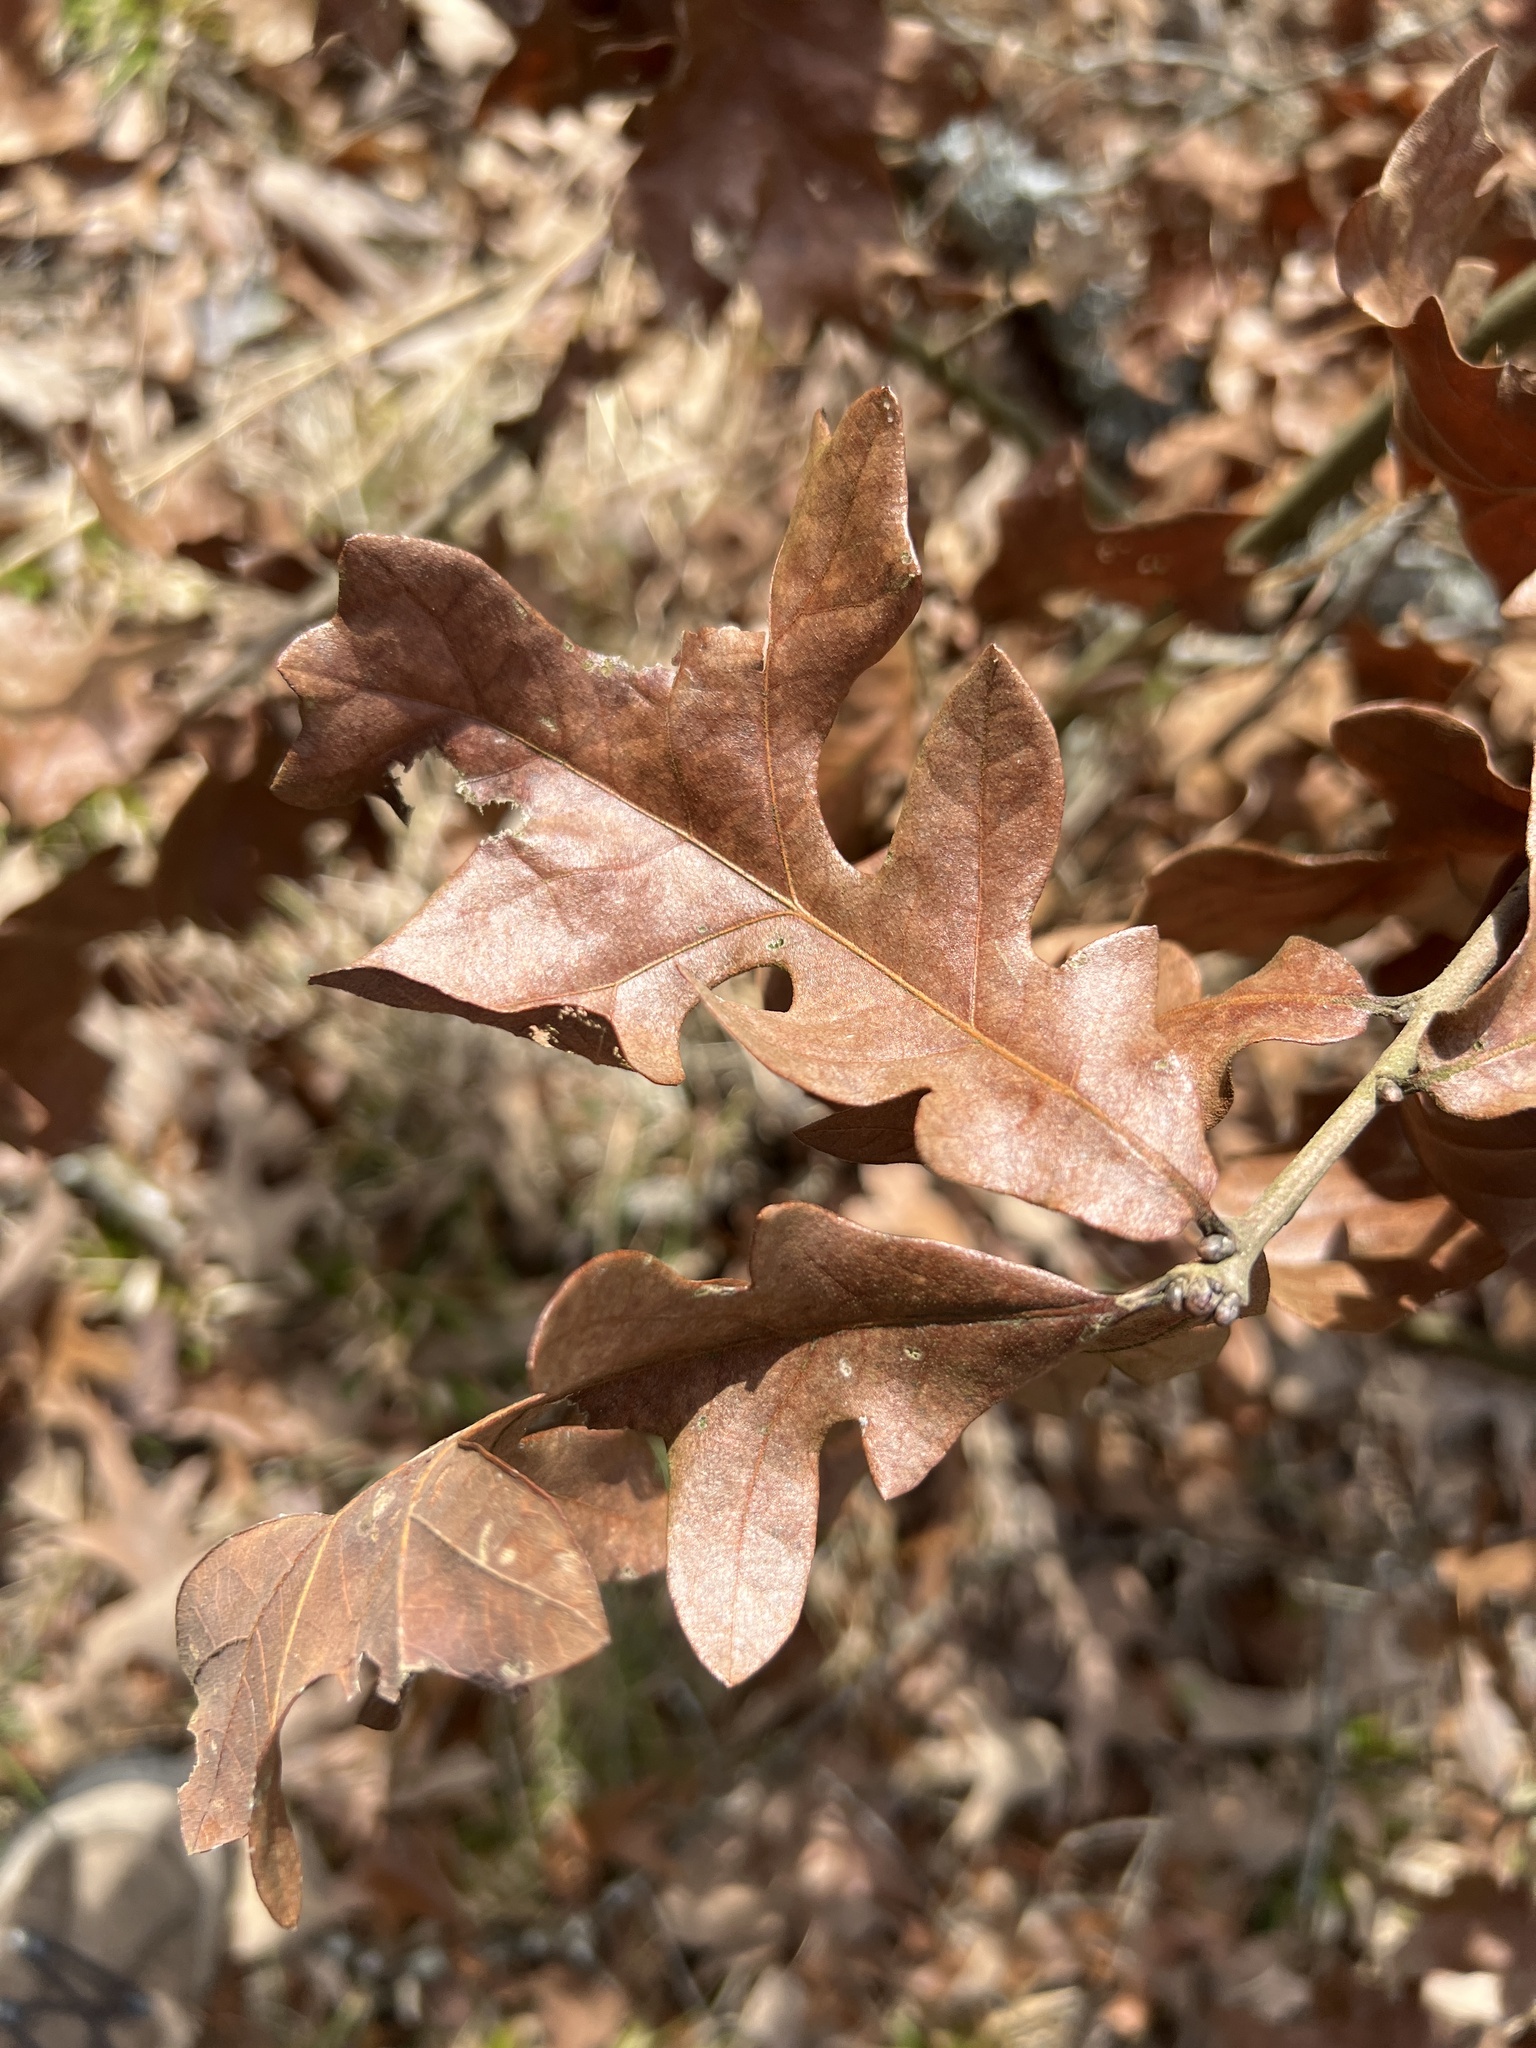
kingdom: Plantae
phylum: Tracheophyta
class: Magnoliopsida
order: Fagales
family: Fagaceae
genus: Quercus
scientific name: Quercus stellata
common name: Post oak
